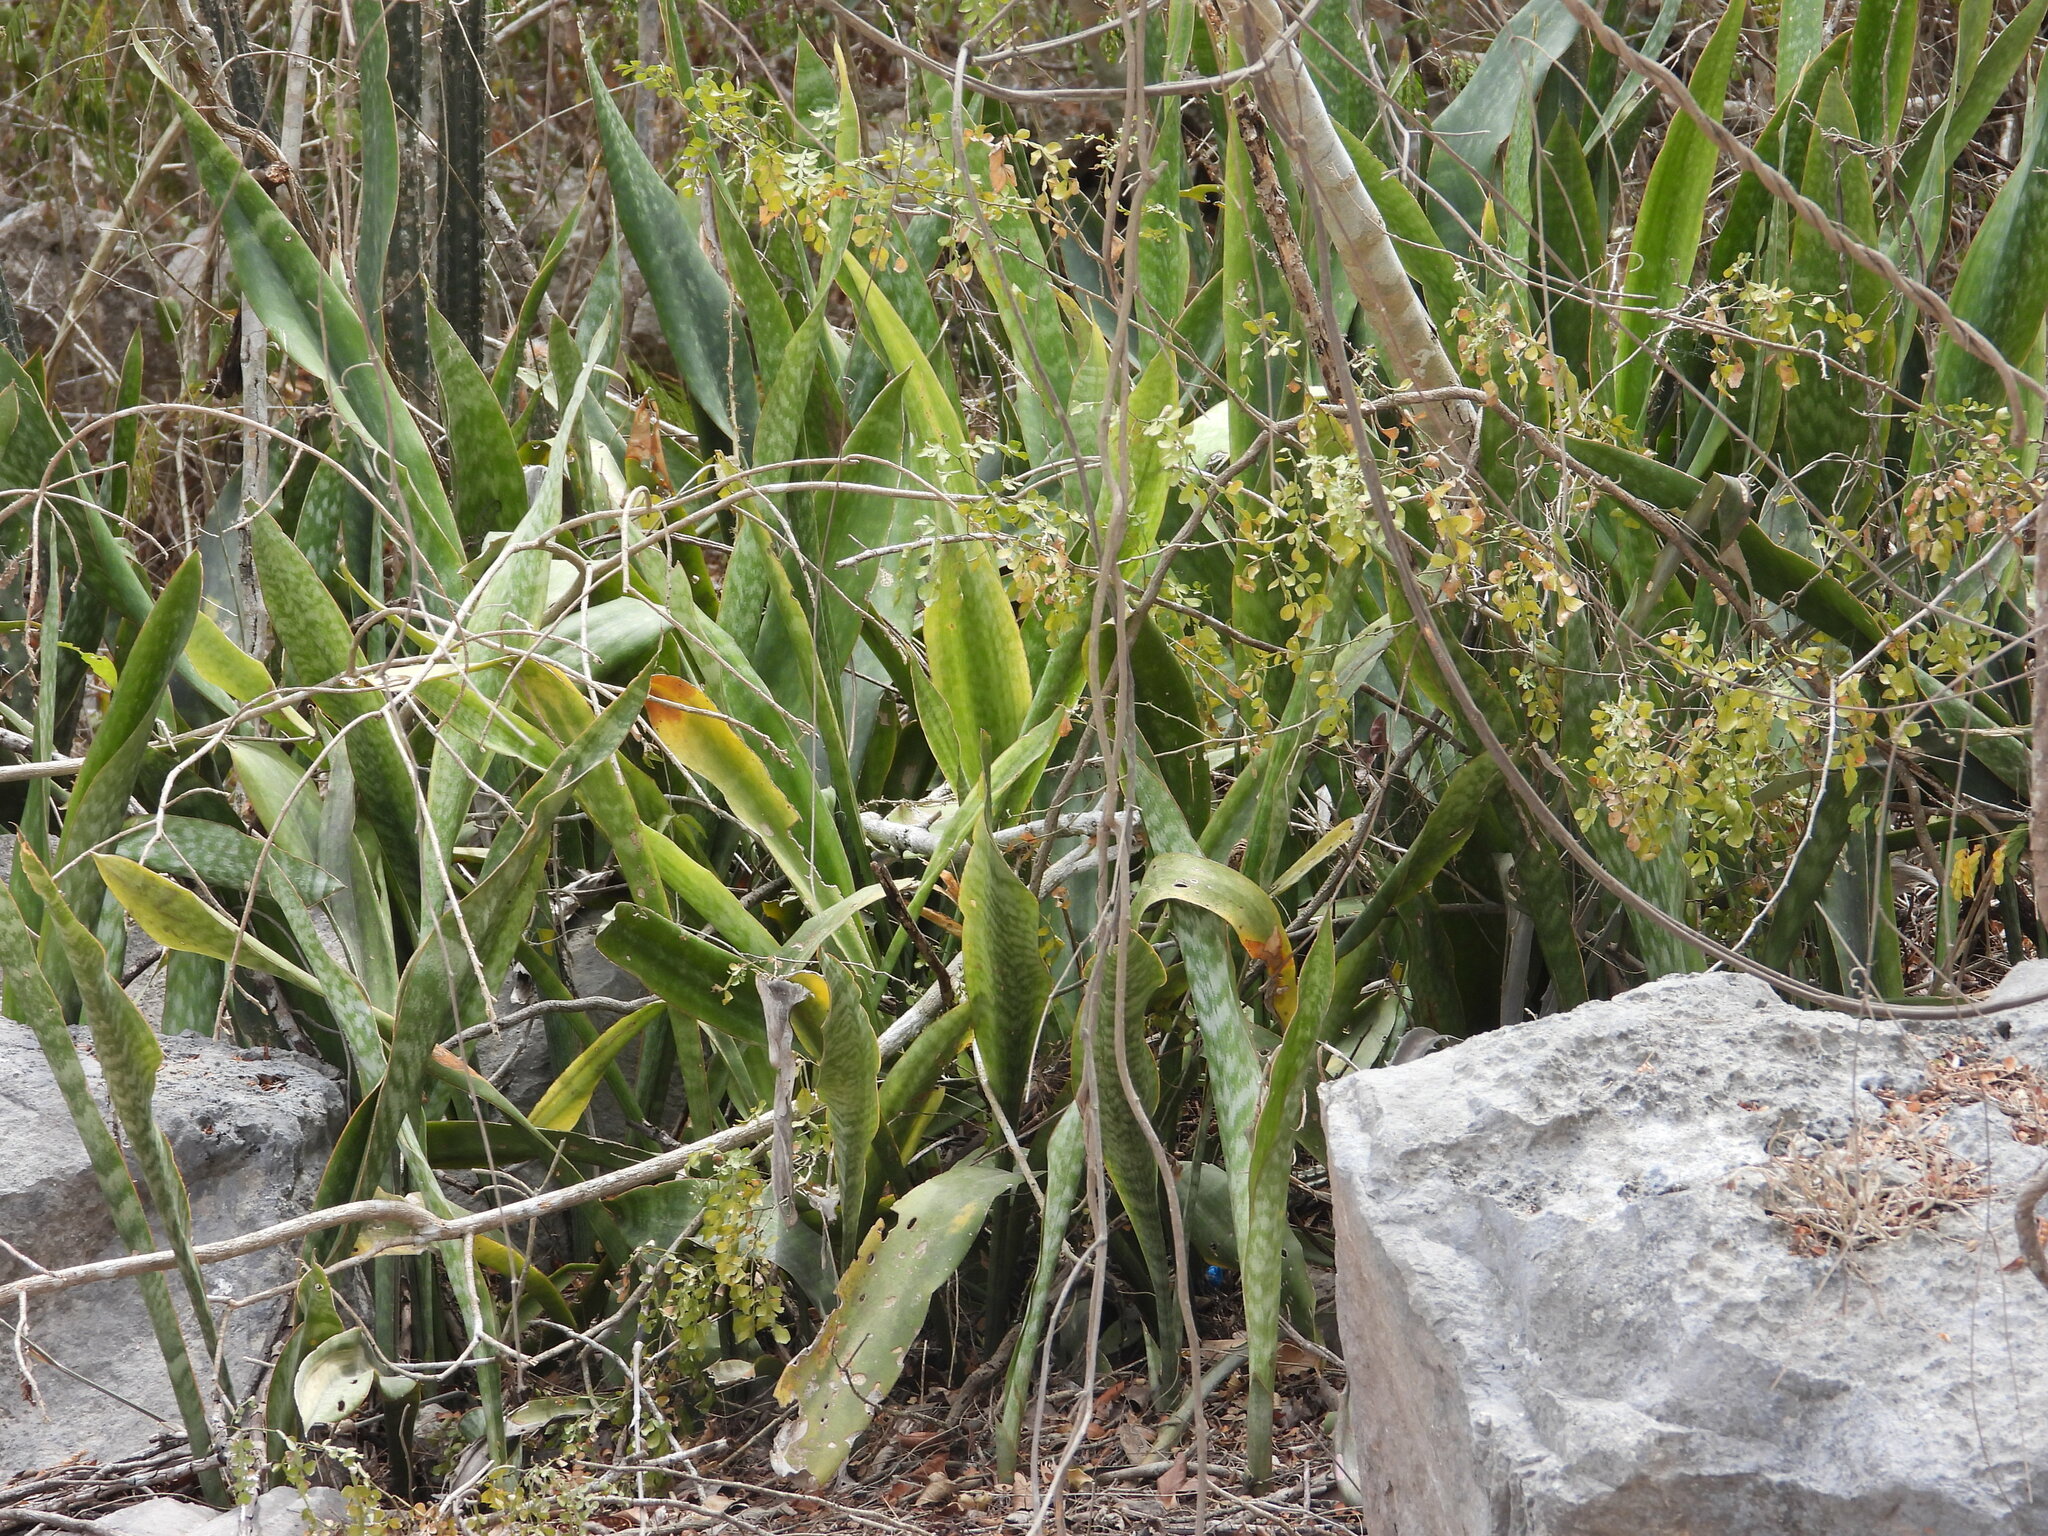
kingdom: Plantae
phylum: Tracheophyta
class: Liliopsida
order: Asparagales
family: Asparagaceae
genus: Dracaena
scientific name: Dracaena hyacinthoides
